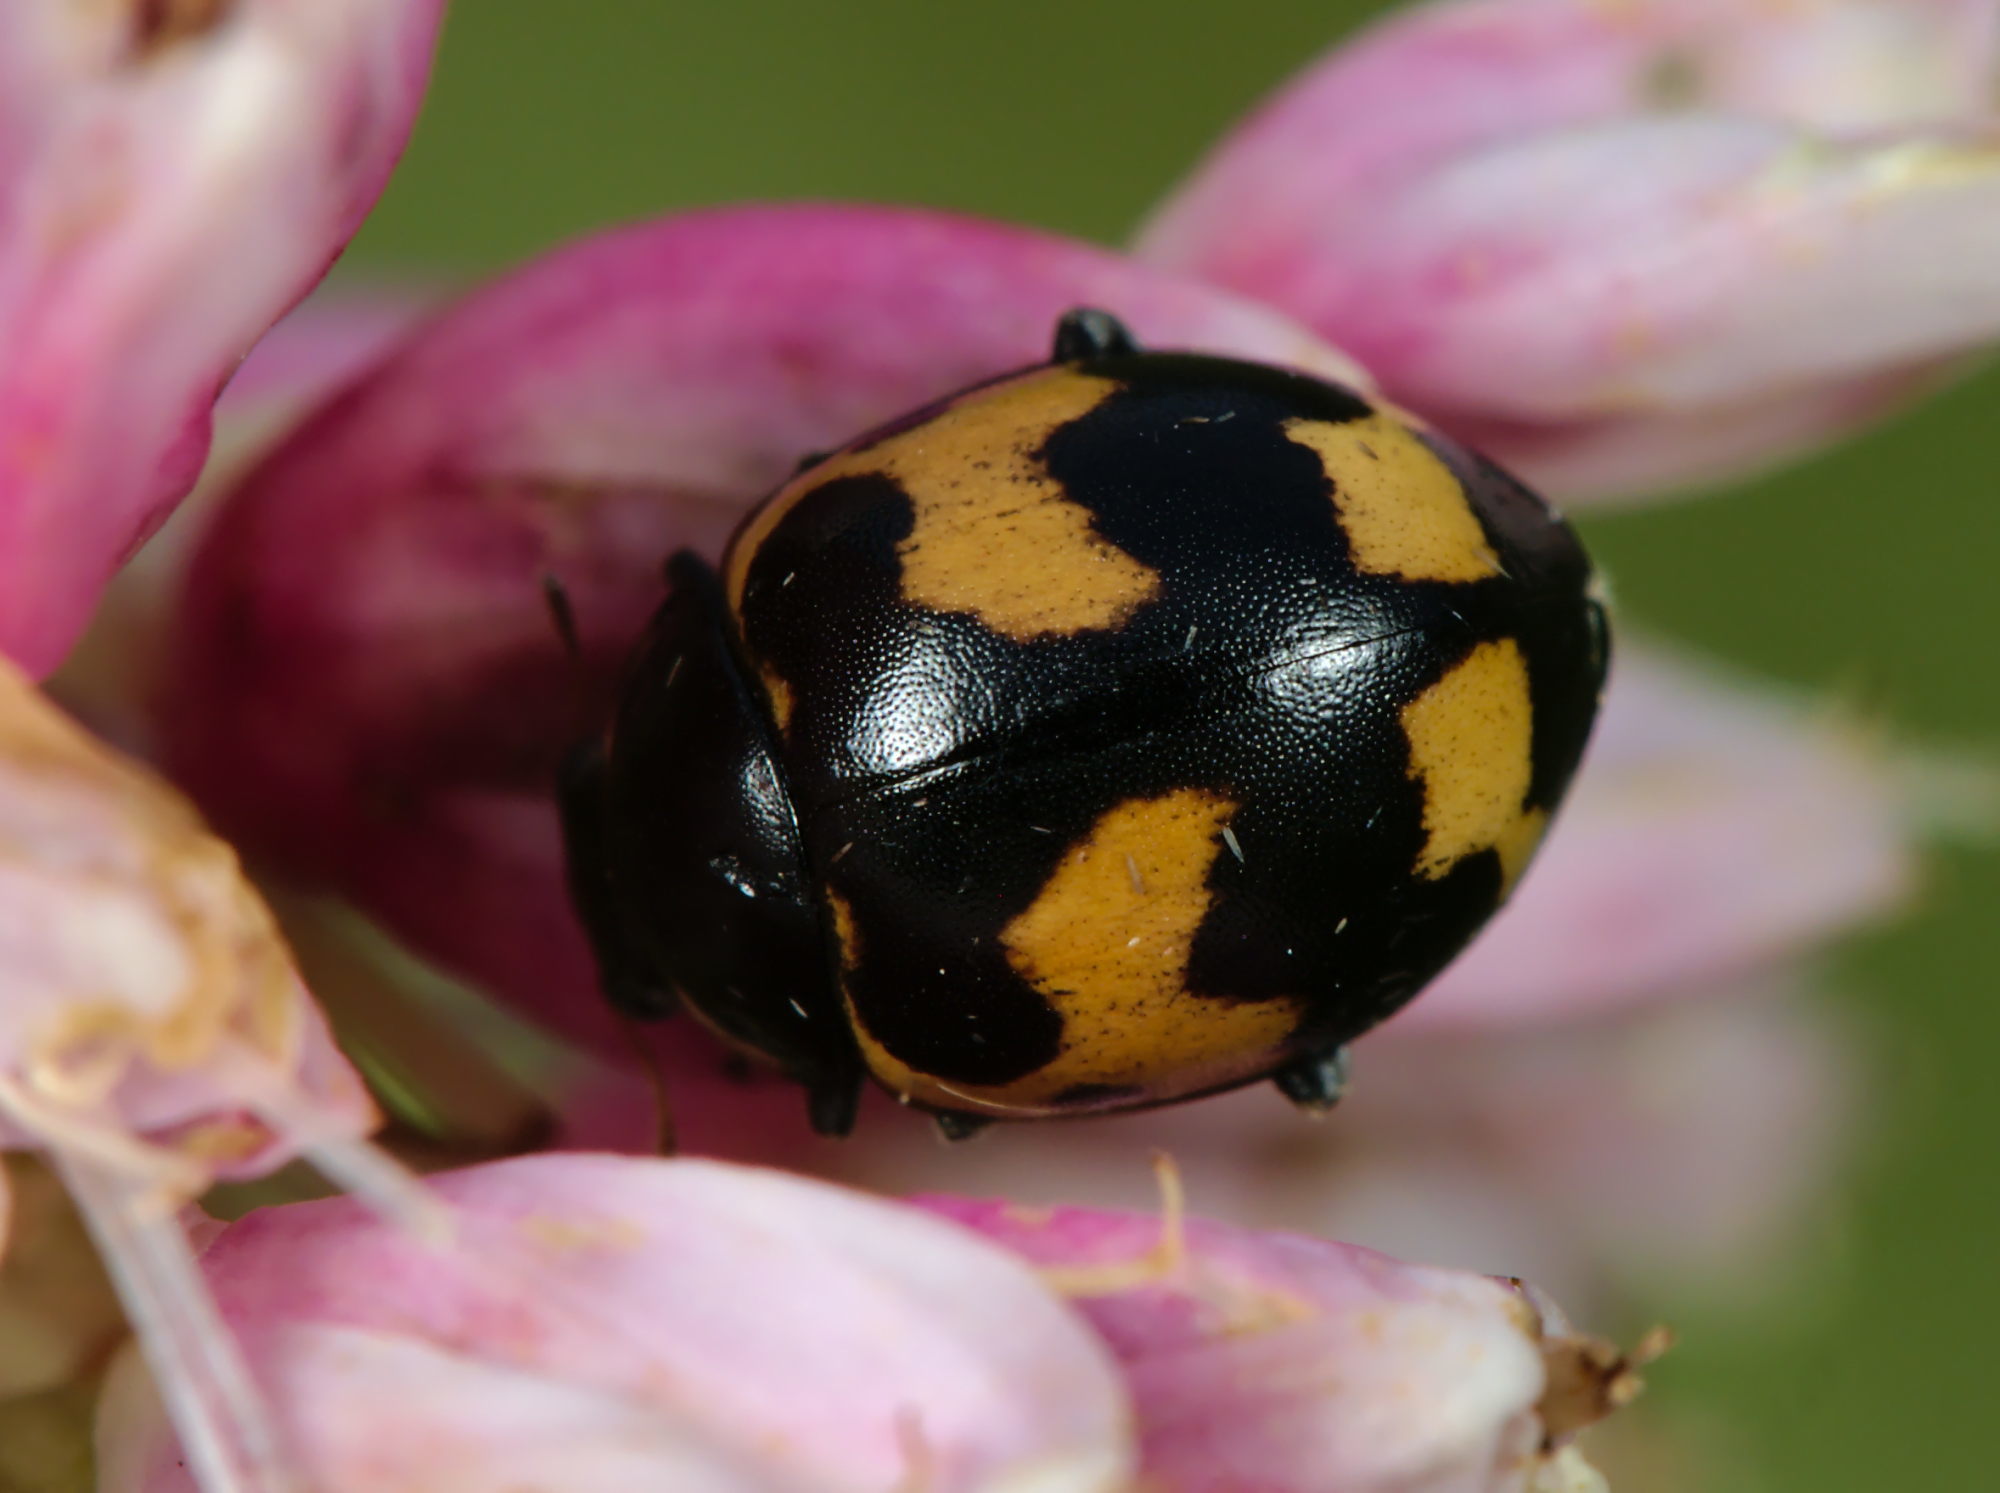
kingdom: Animalia
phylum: Arthropoda
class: Insecta
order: Coleoptera
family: Coccinellidae
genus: Ceratomegilla
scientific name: Ceratomegilla alpina
